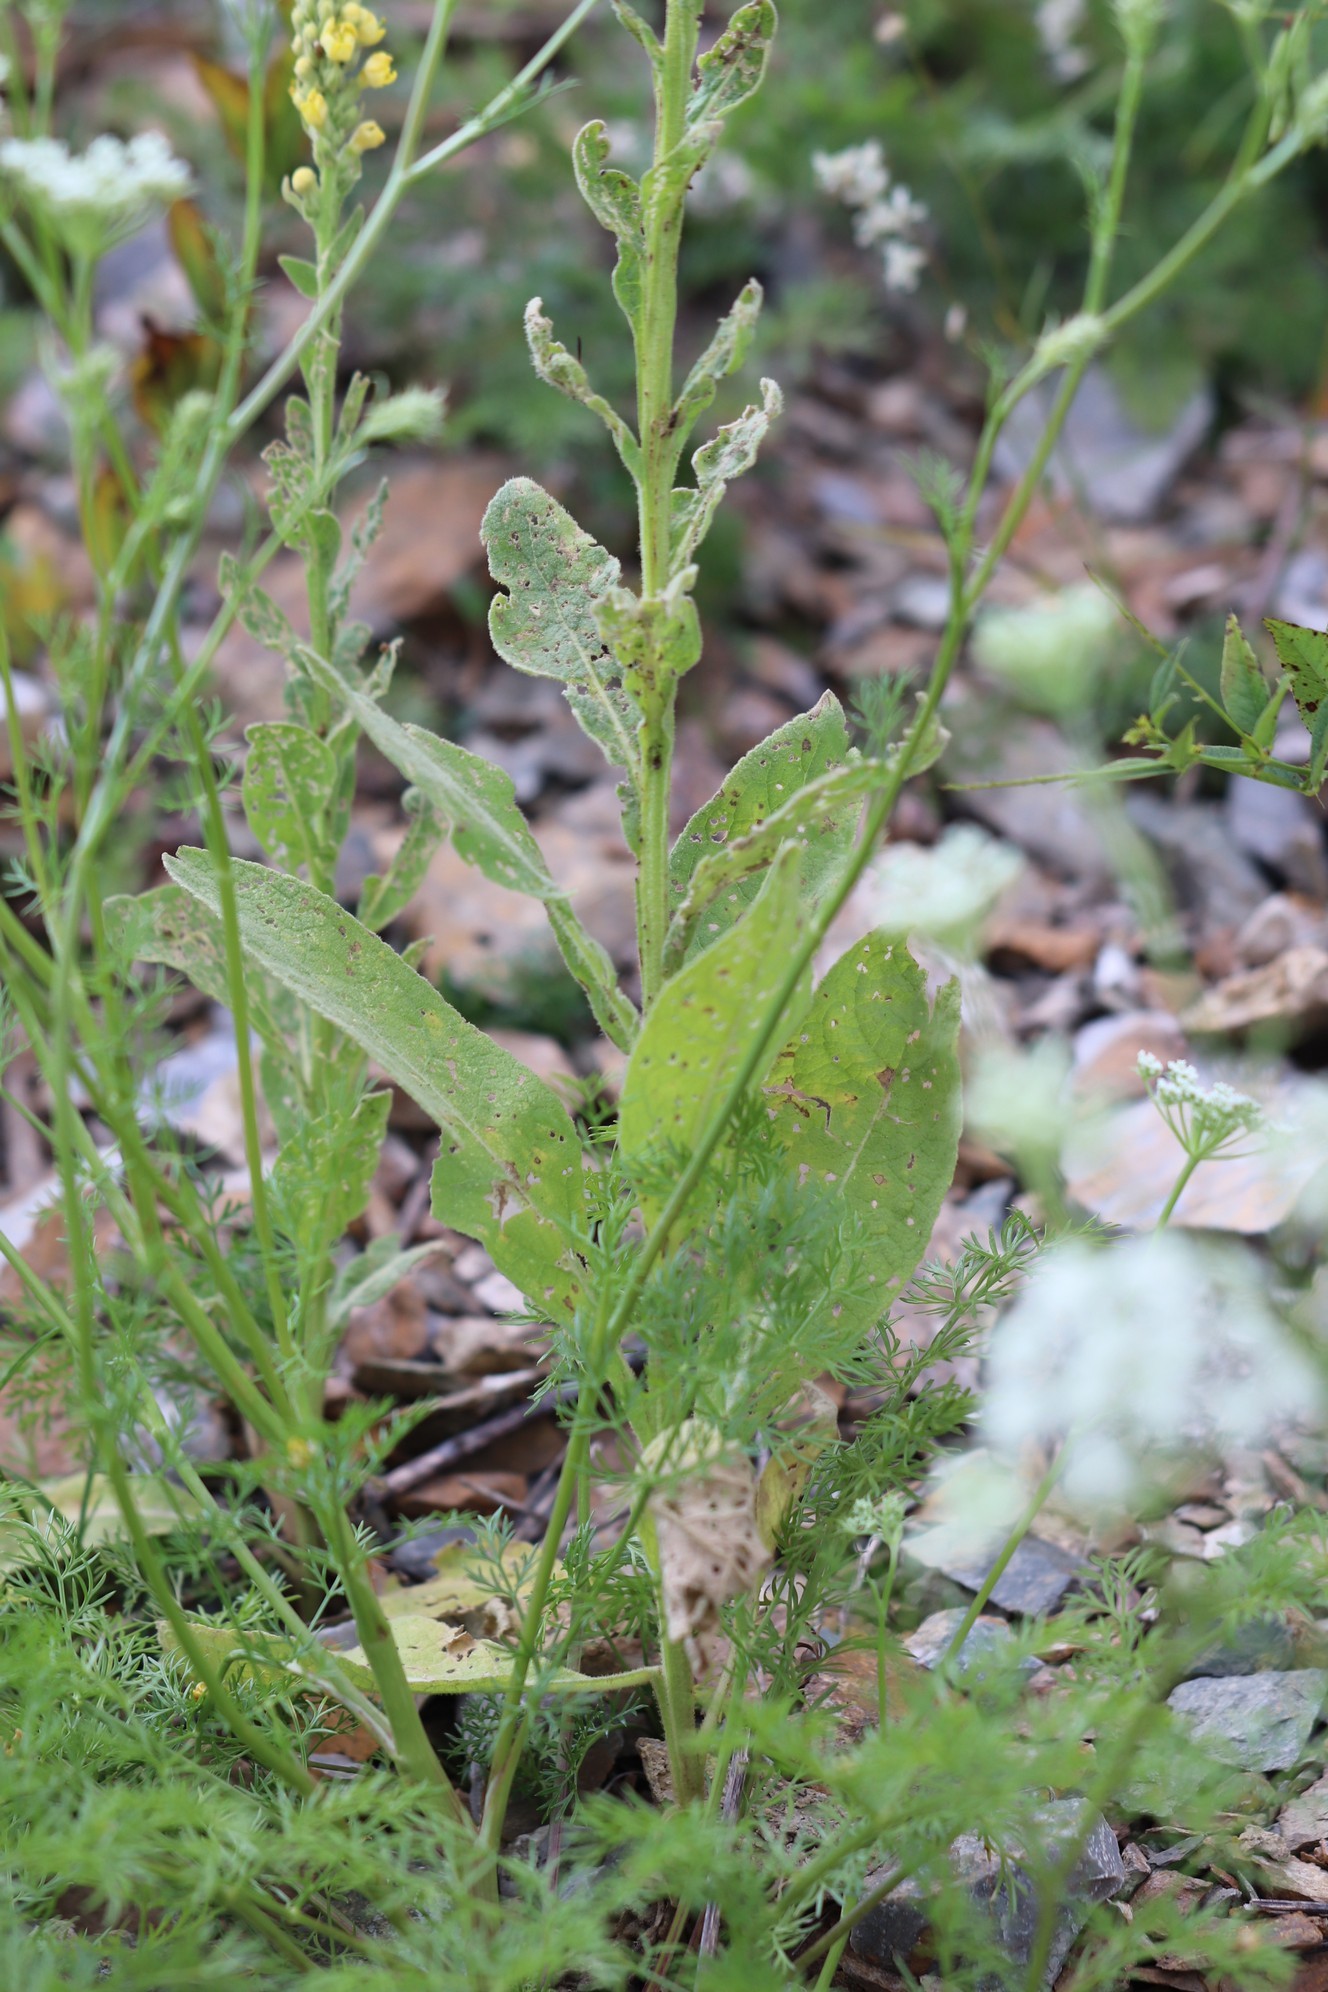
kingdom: Plantae
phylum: Tracheophyta
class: Magnoliopsida
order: Lamiales
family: Scrophulariaceae
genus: Verbascum
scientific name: Verbascum thapsus
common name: Common mullein
